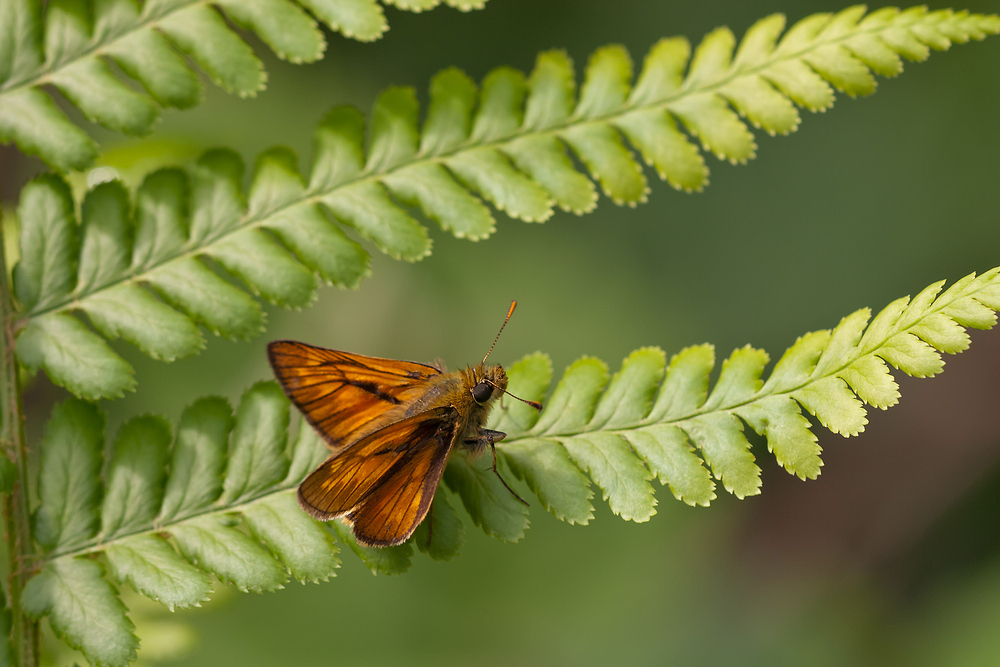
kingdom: Animalia
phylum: Arthropoda
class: Insecta
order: Lepidoptera
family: Hesperiidae
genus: Ochlodes
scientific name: Ochlodes venata
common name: Large skipper
